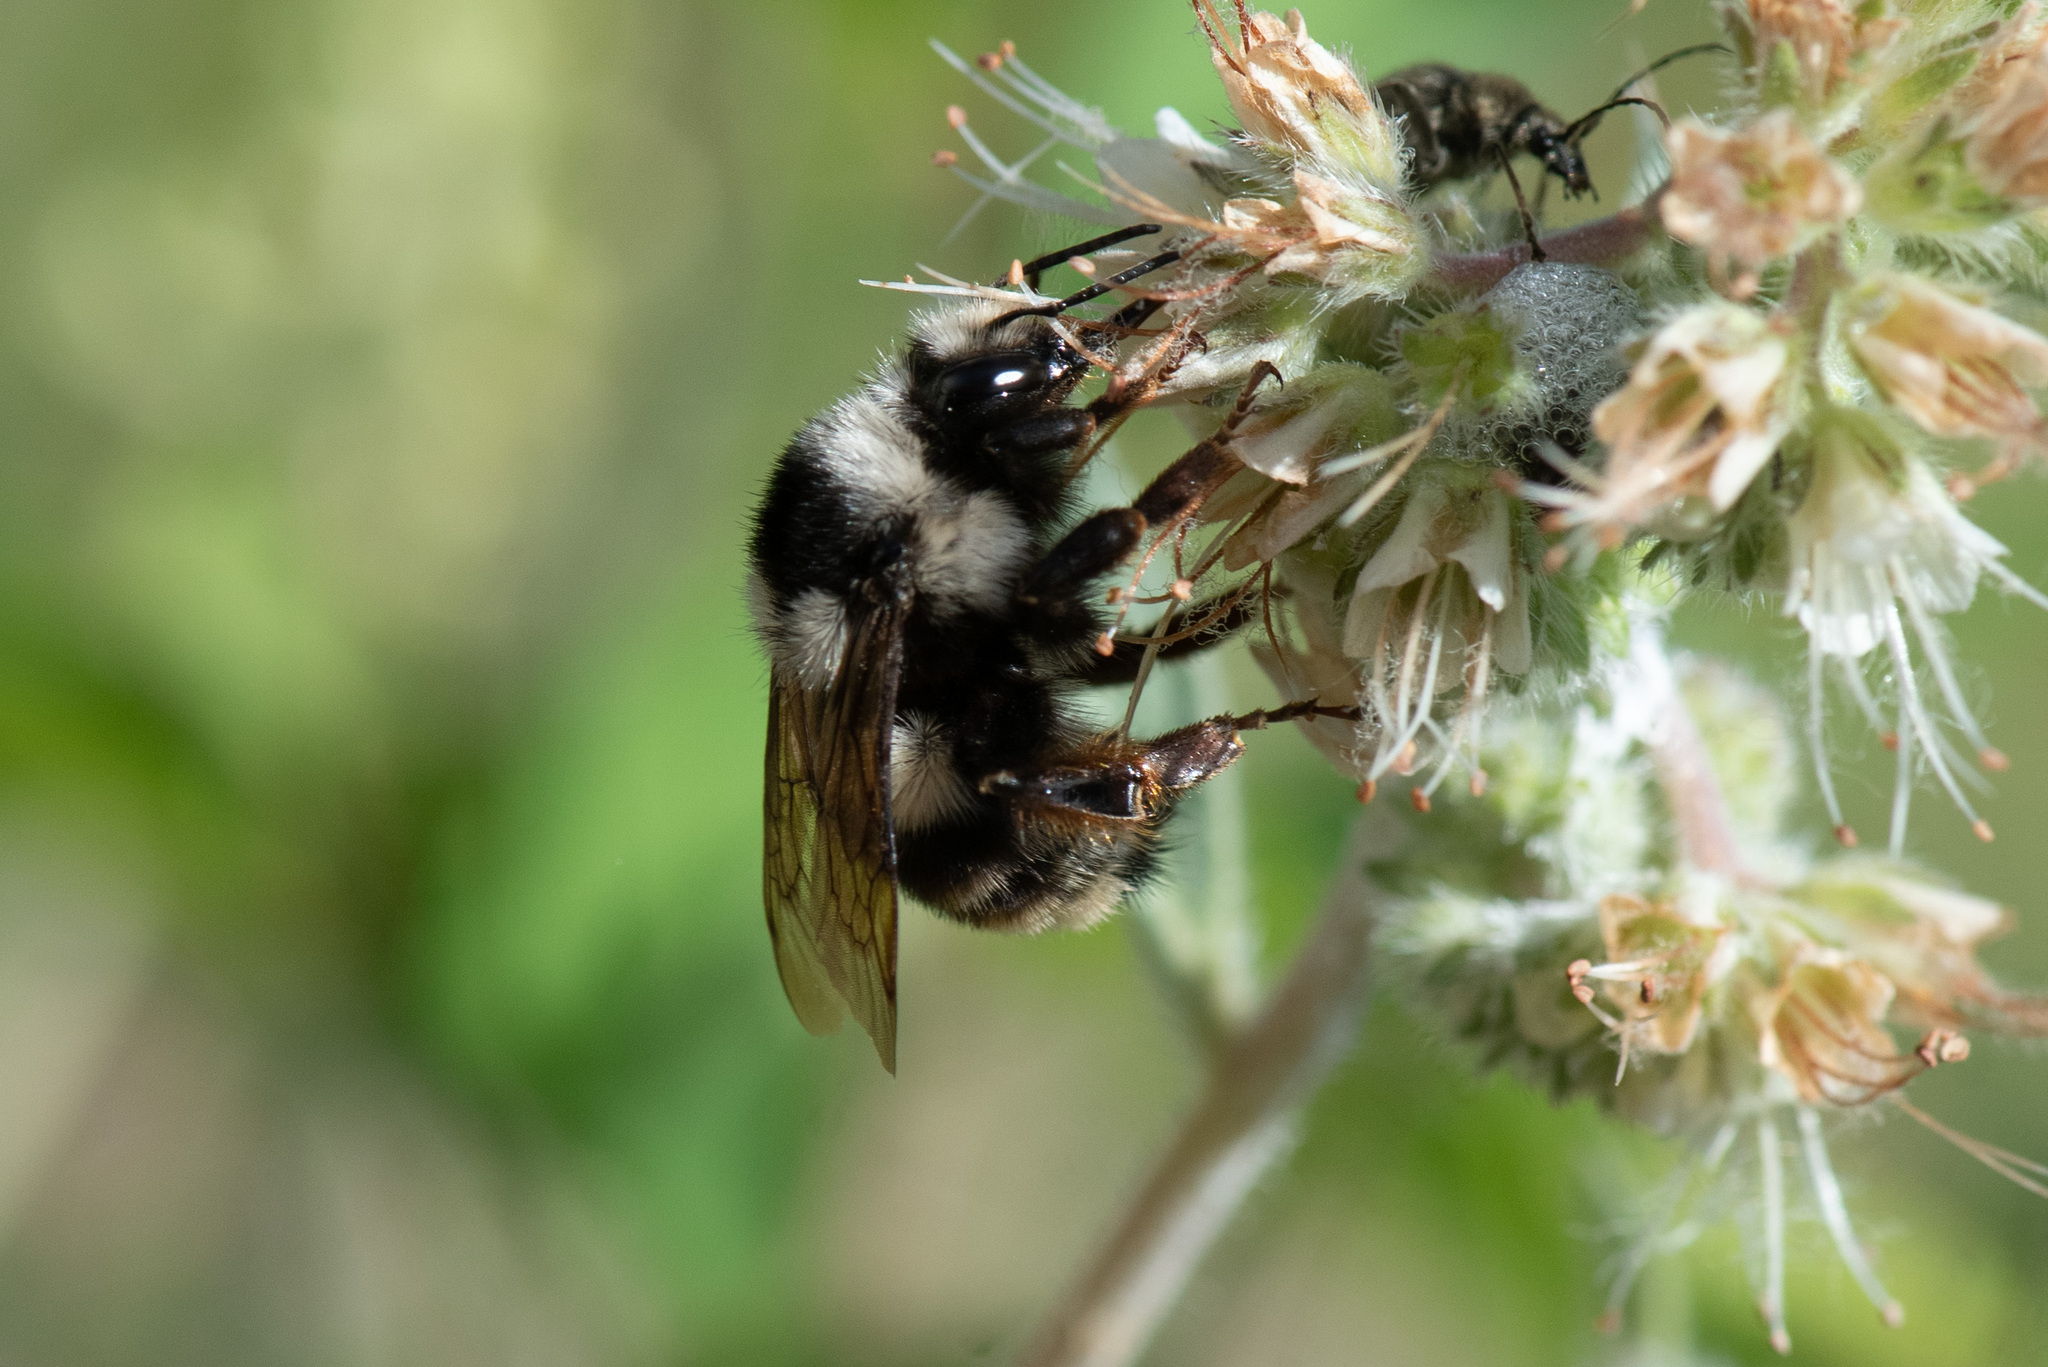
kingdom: Animalia
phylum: Arthropoda
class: Insecta
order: Hymenoptera
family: Apidae
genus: Bombus
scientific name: Bombus vancouverensis
